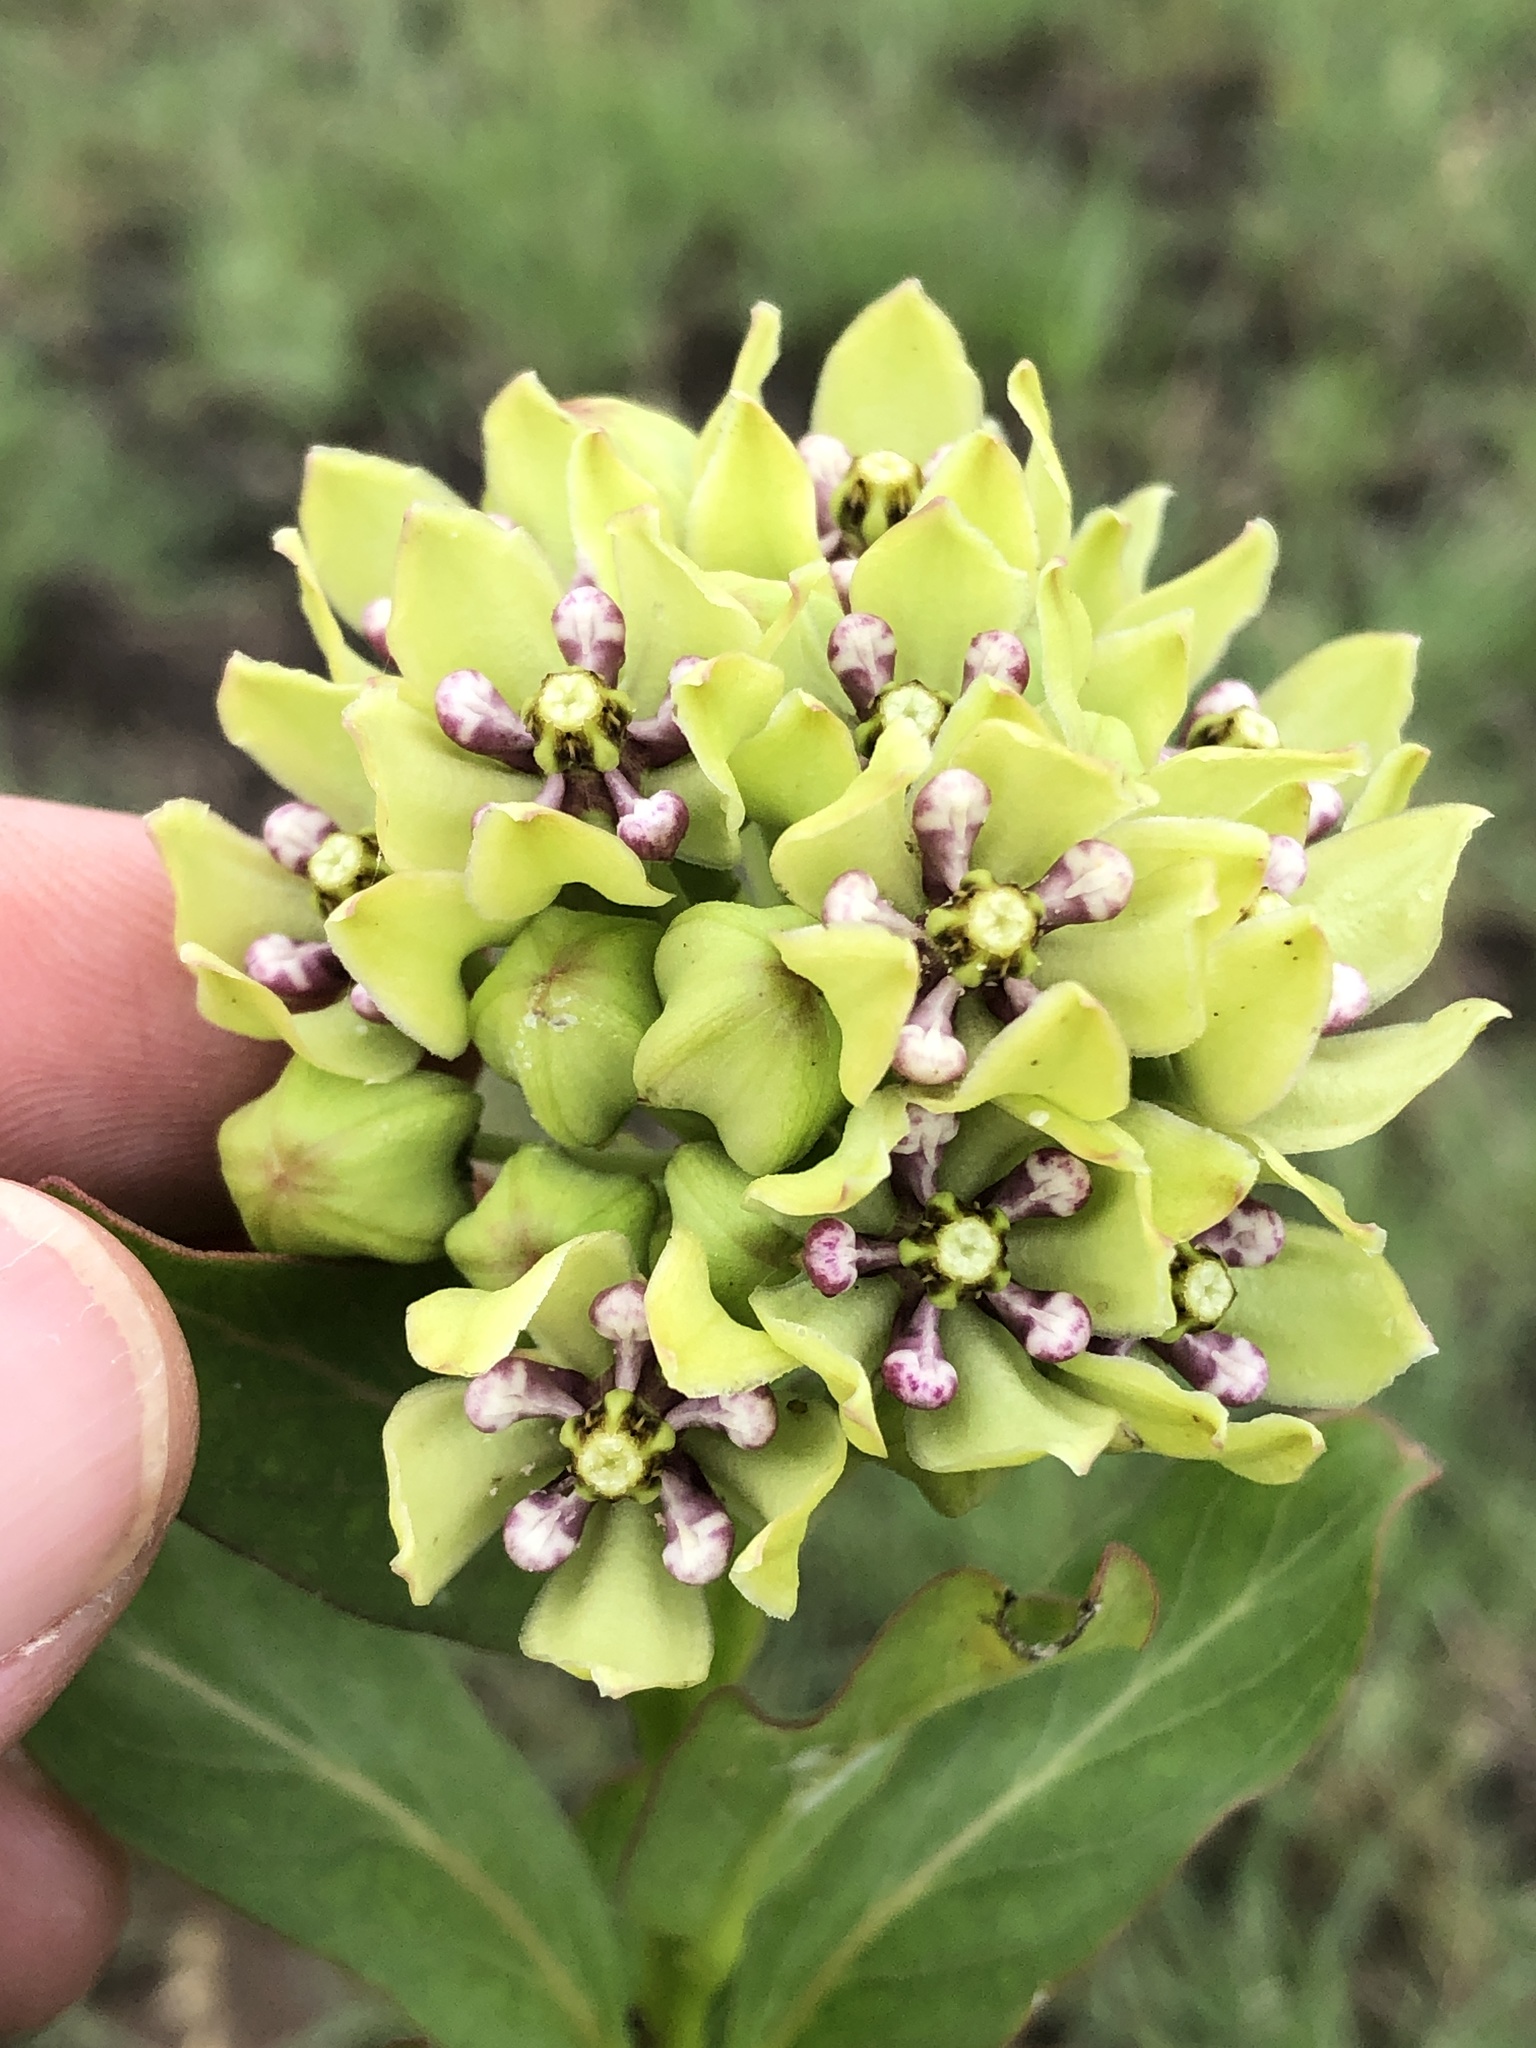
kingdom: Plantae
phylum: Tracheophyta
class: Magnoliopsida
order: Gentianales
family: Apocynaceae
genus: Asclepias
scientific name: Asclepias viridis
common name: Antelope-horns
